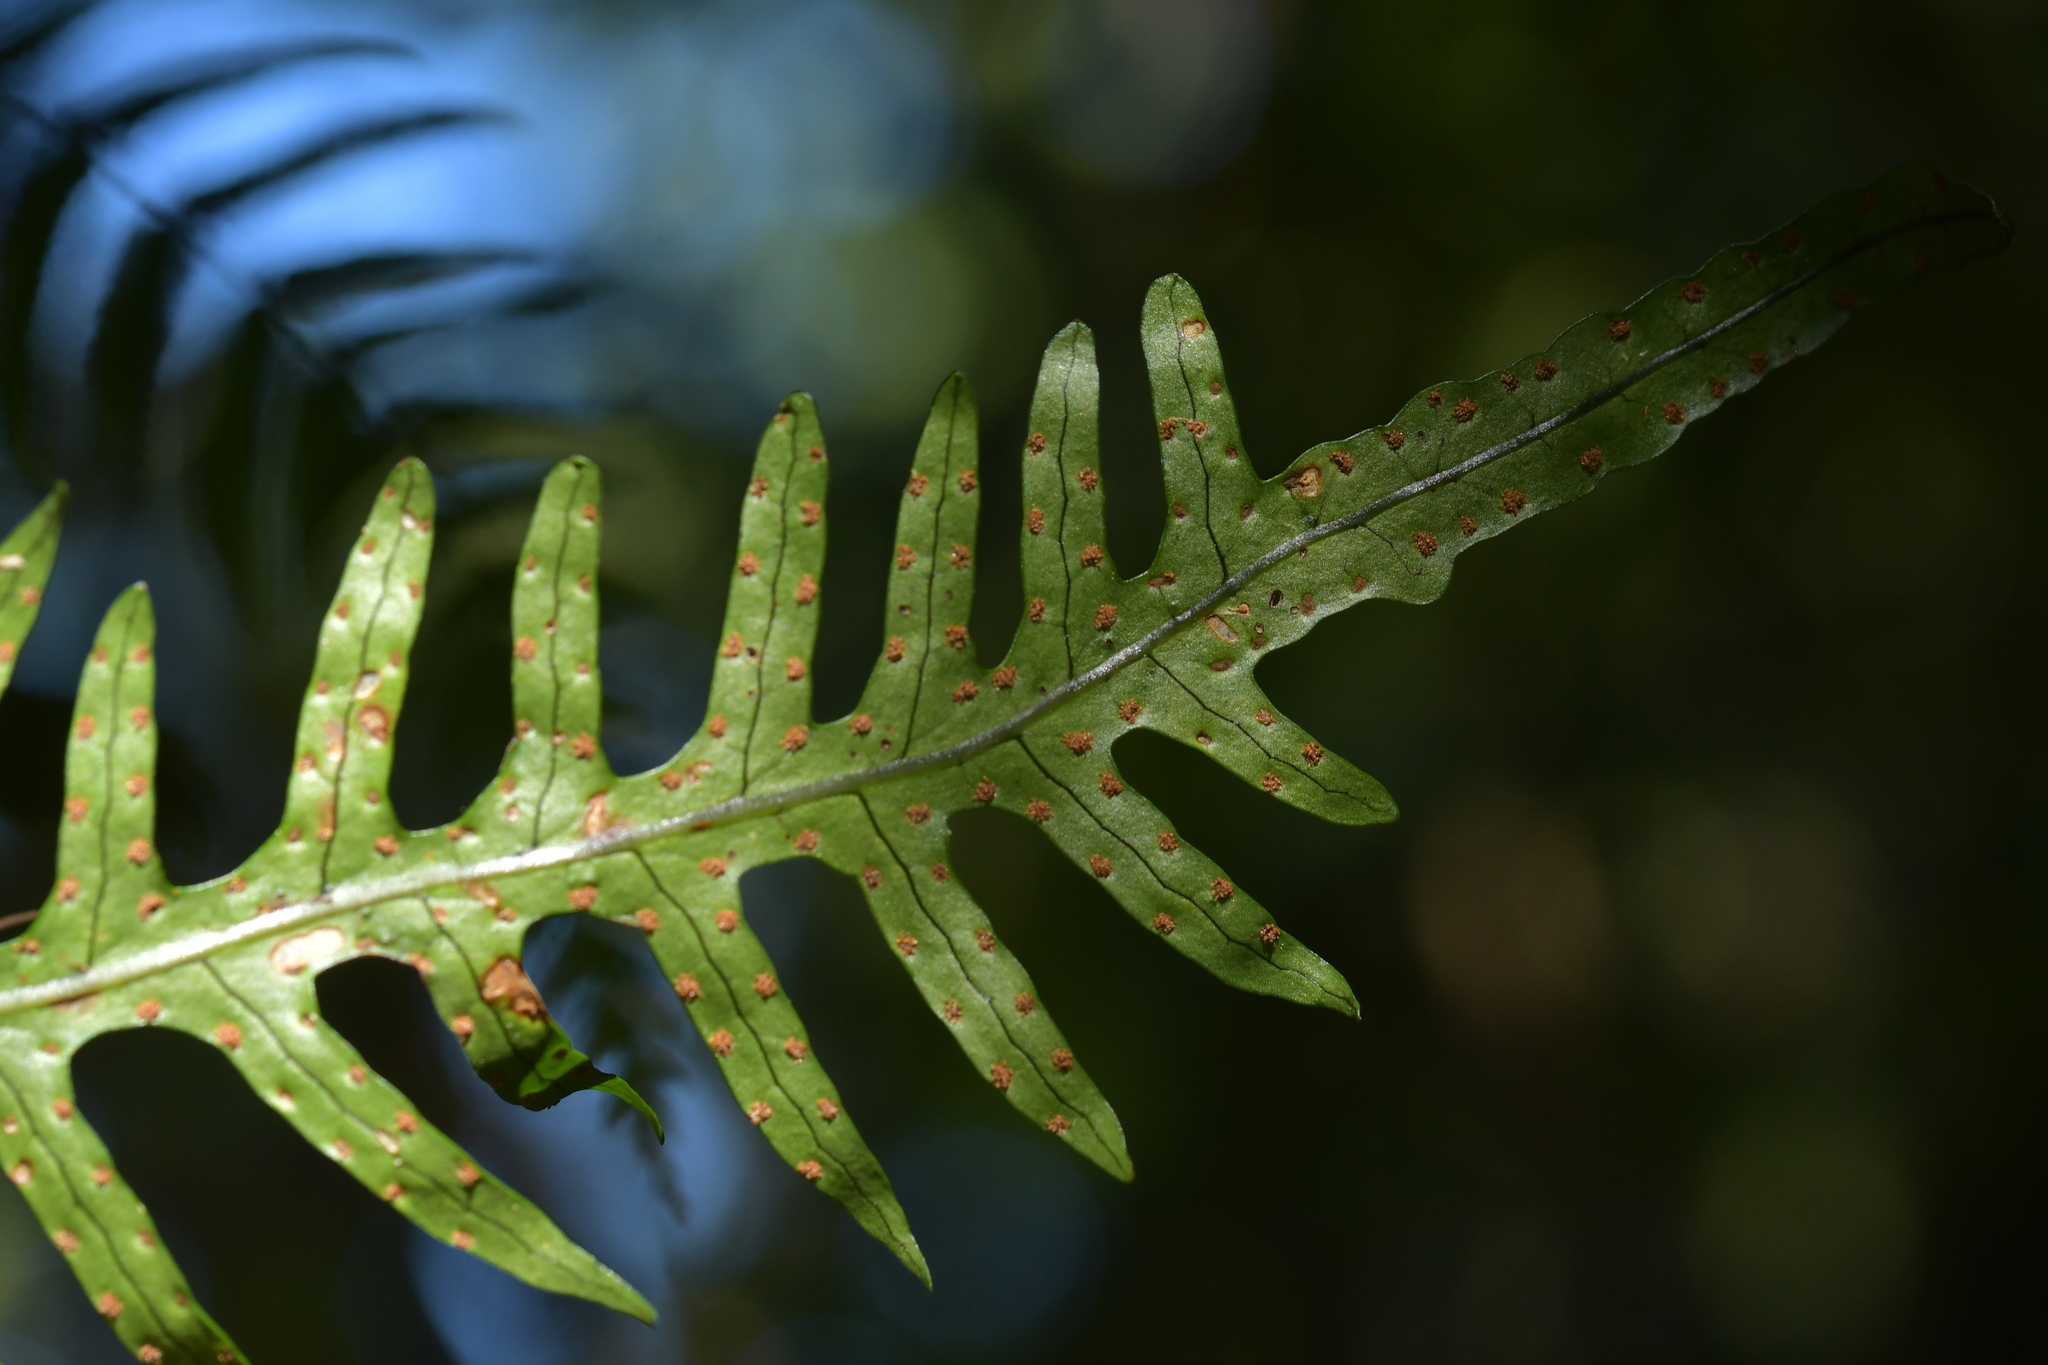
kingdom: Plantae
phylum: Tracheophyta
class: Polypodiopsida
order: Polypodiales
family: Polypodiaceae
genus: Lecanopteris
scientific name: Lecanopteris scandens
